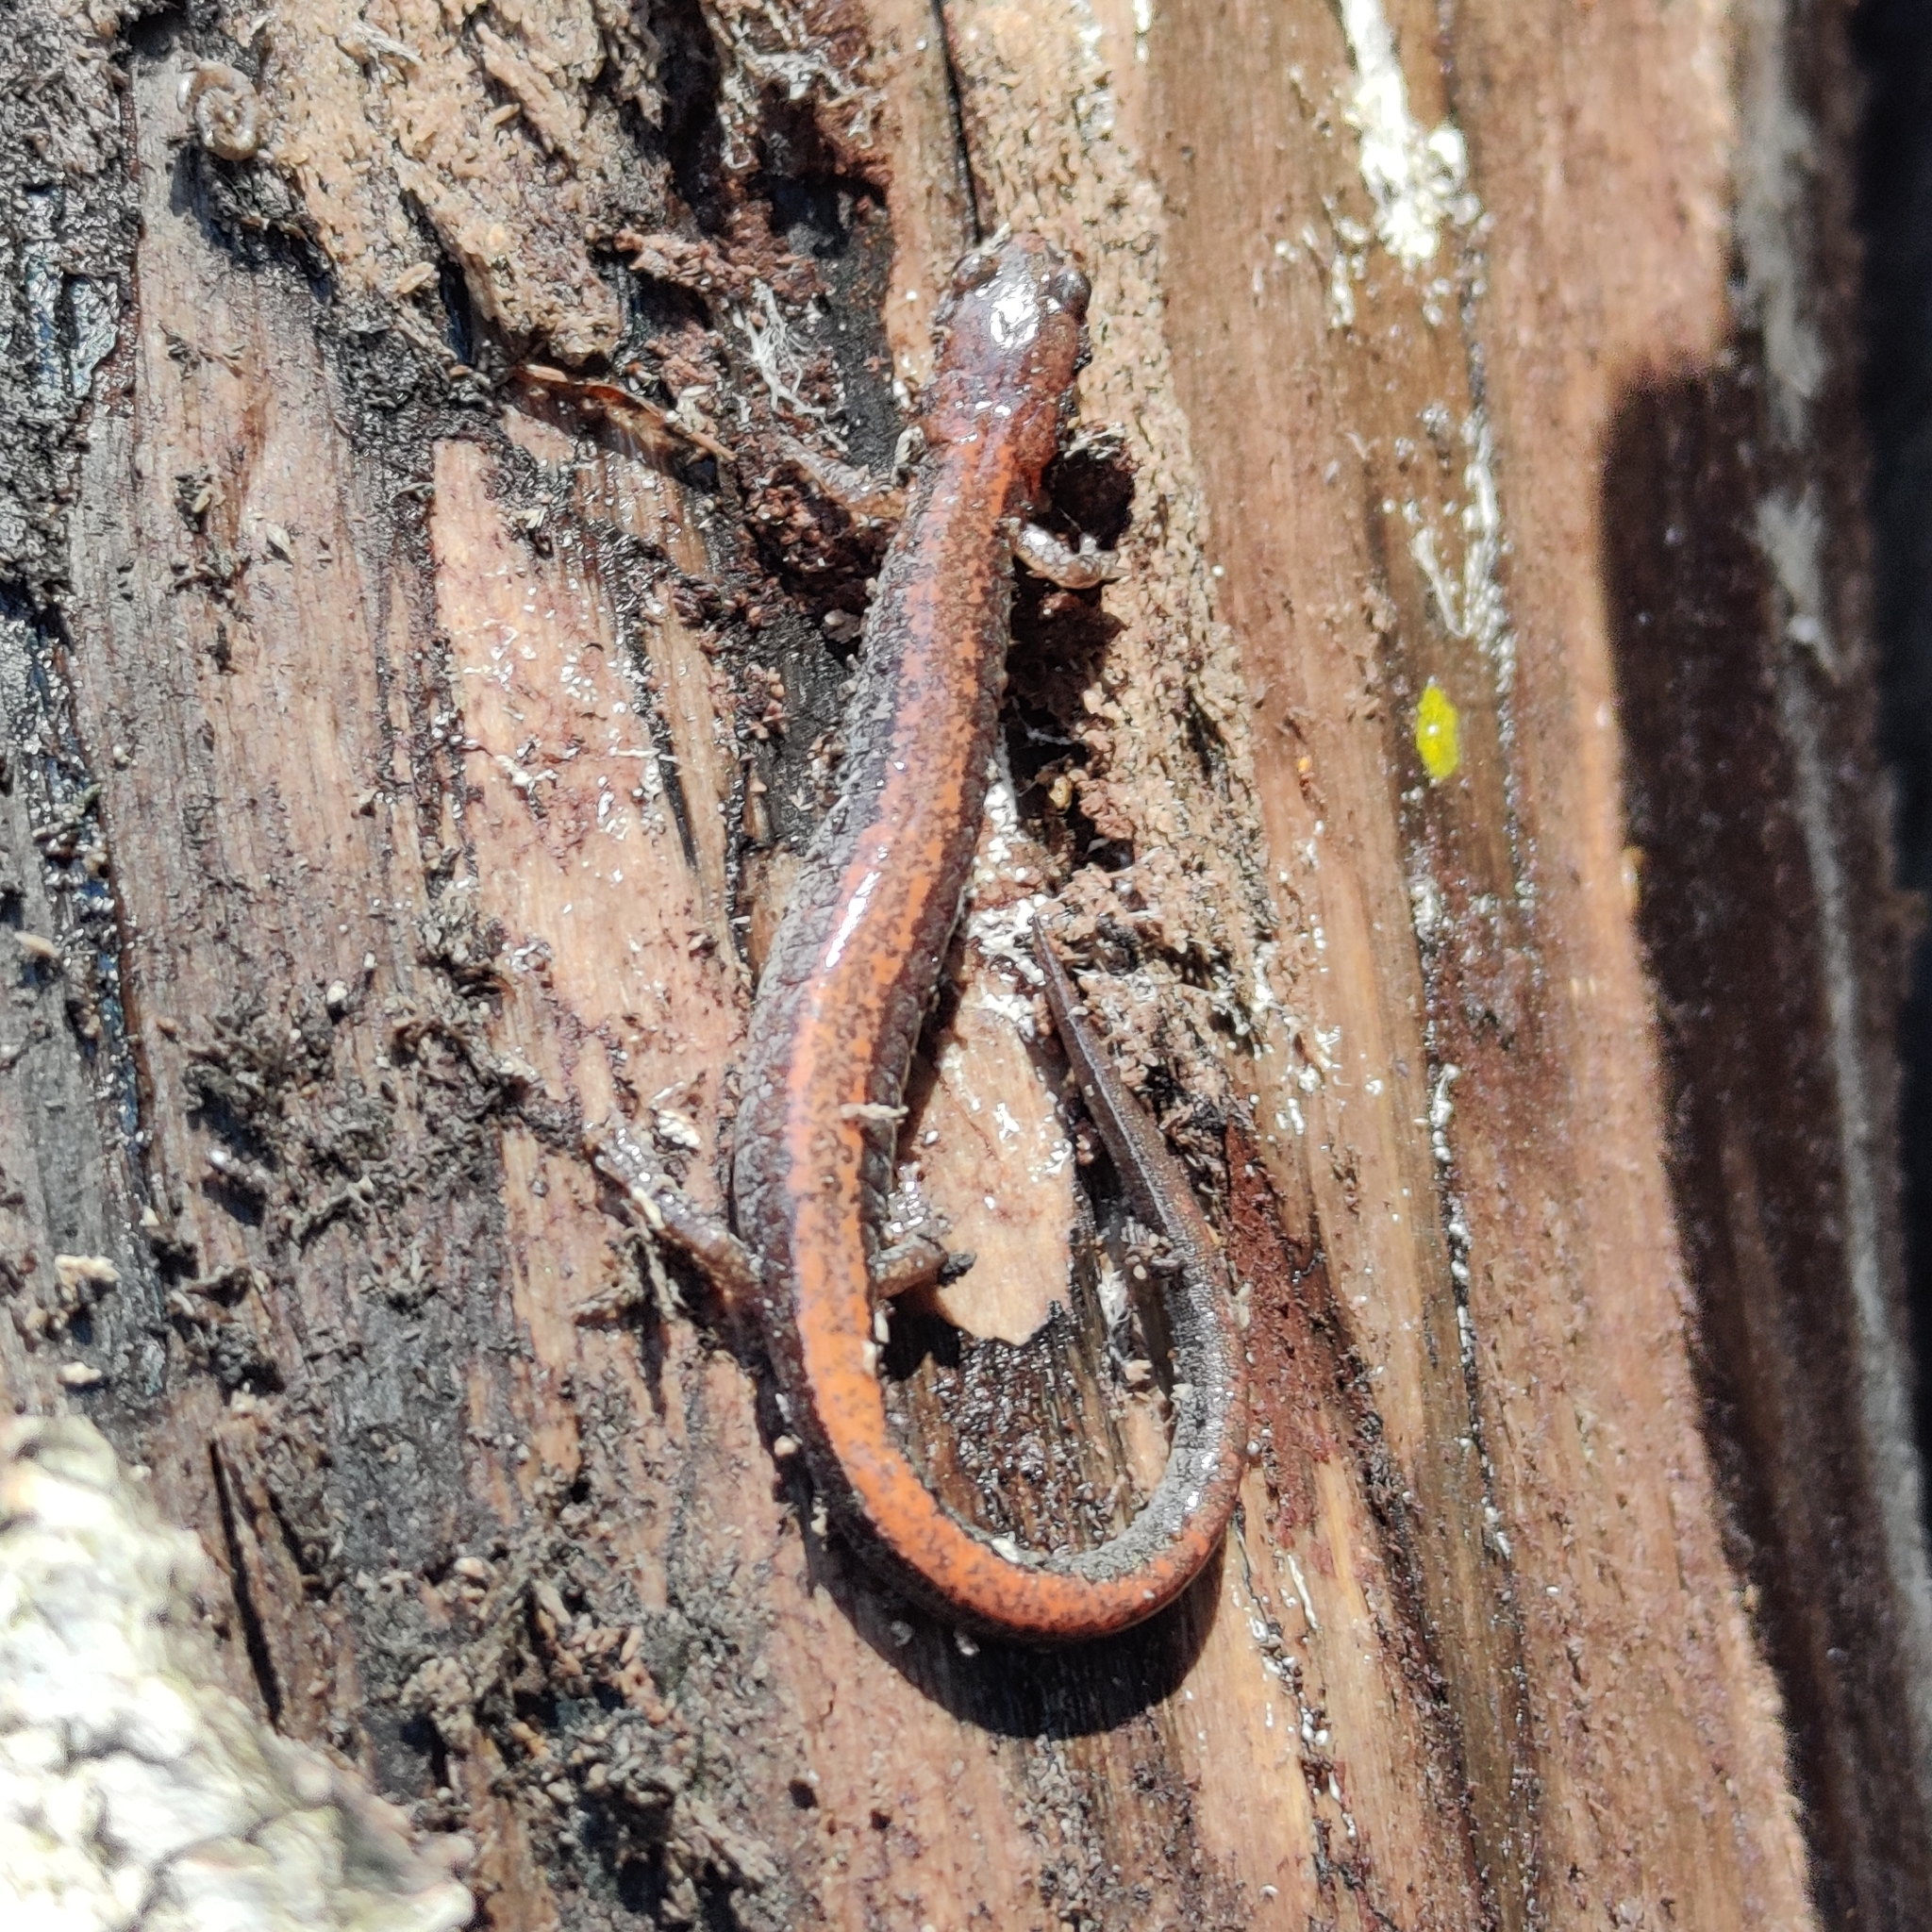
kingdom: Animalia
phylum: Chordata
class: Amphibia
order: Caudata
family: Plethodontidae
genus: Plethodon
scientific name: Plethodon cinereus
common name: Redback salamander
